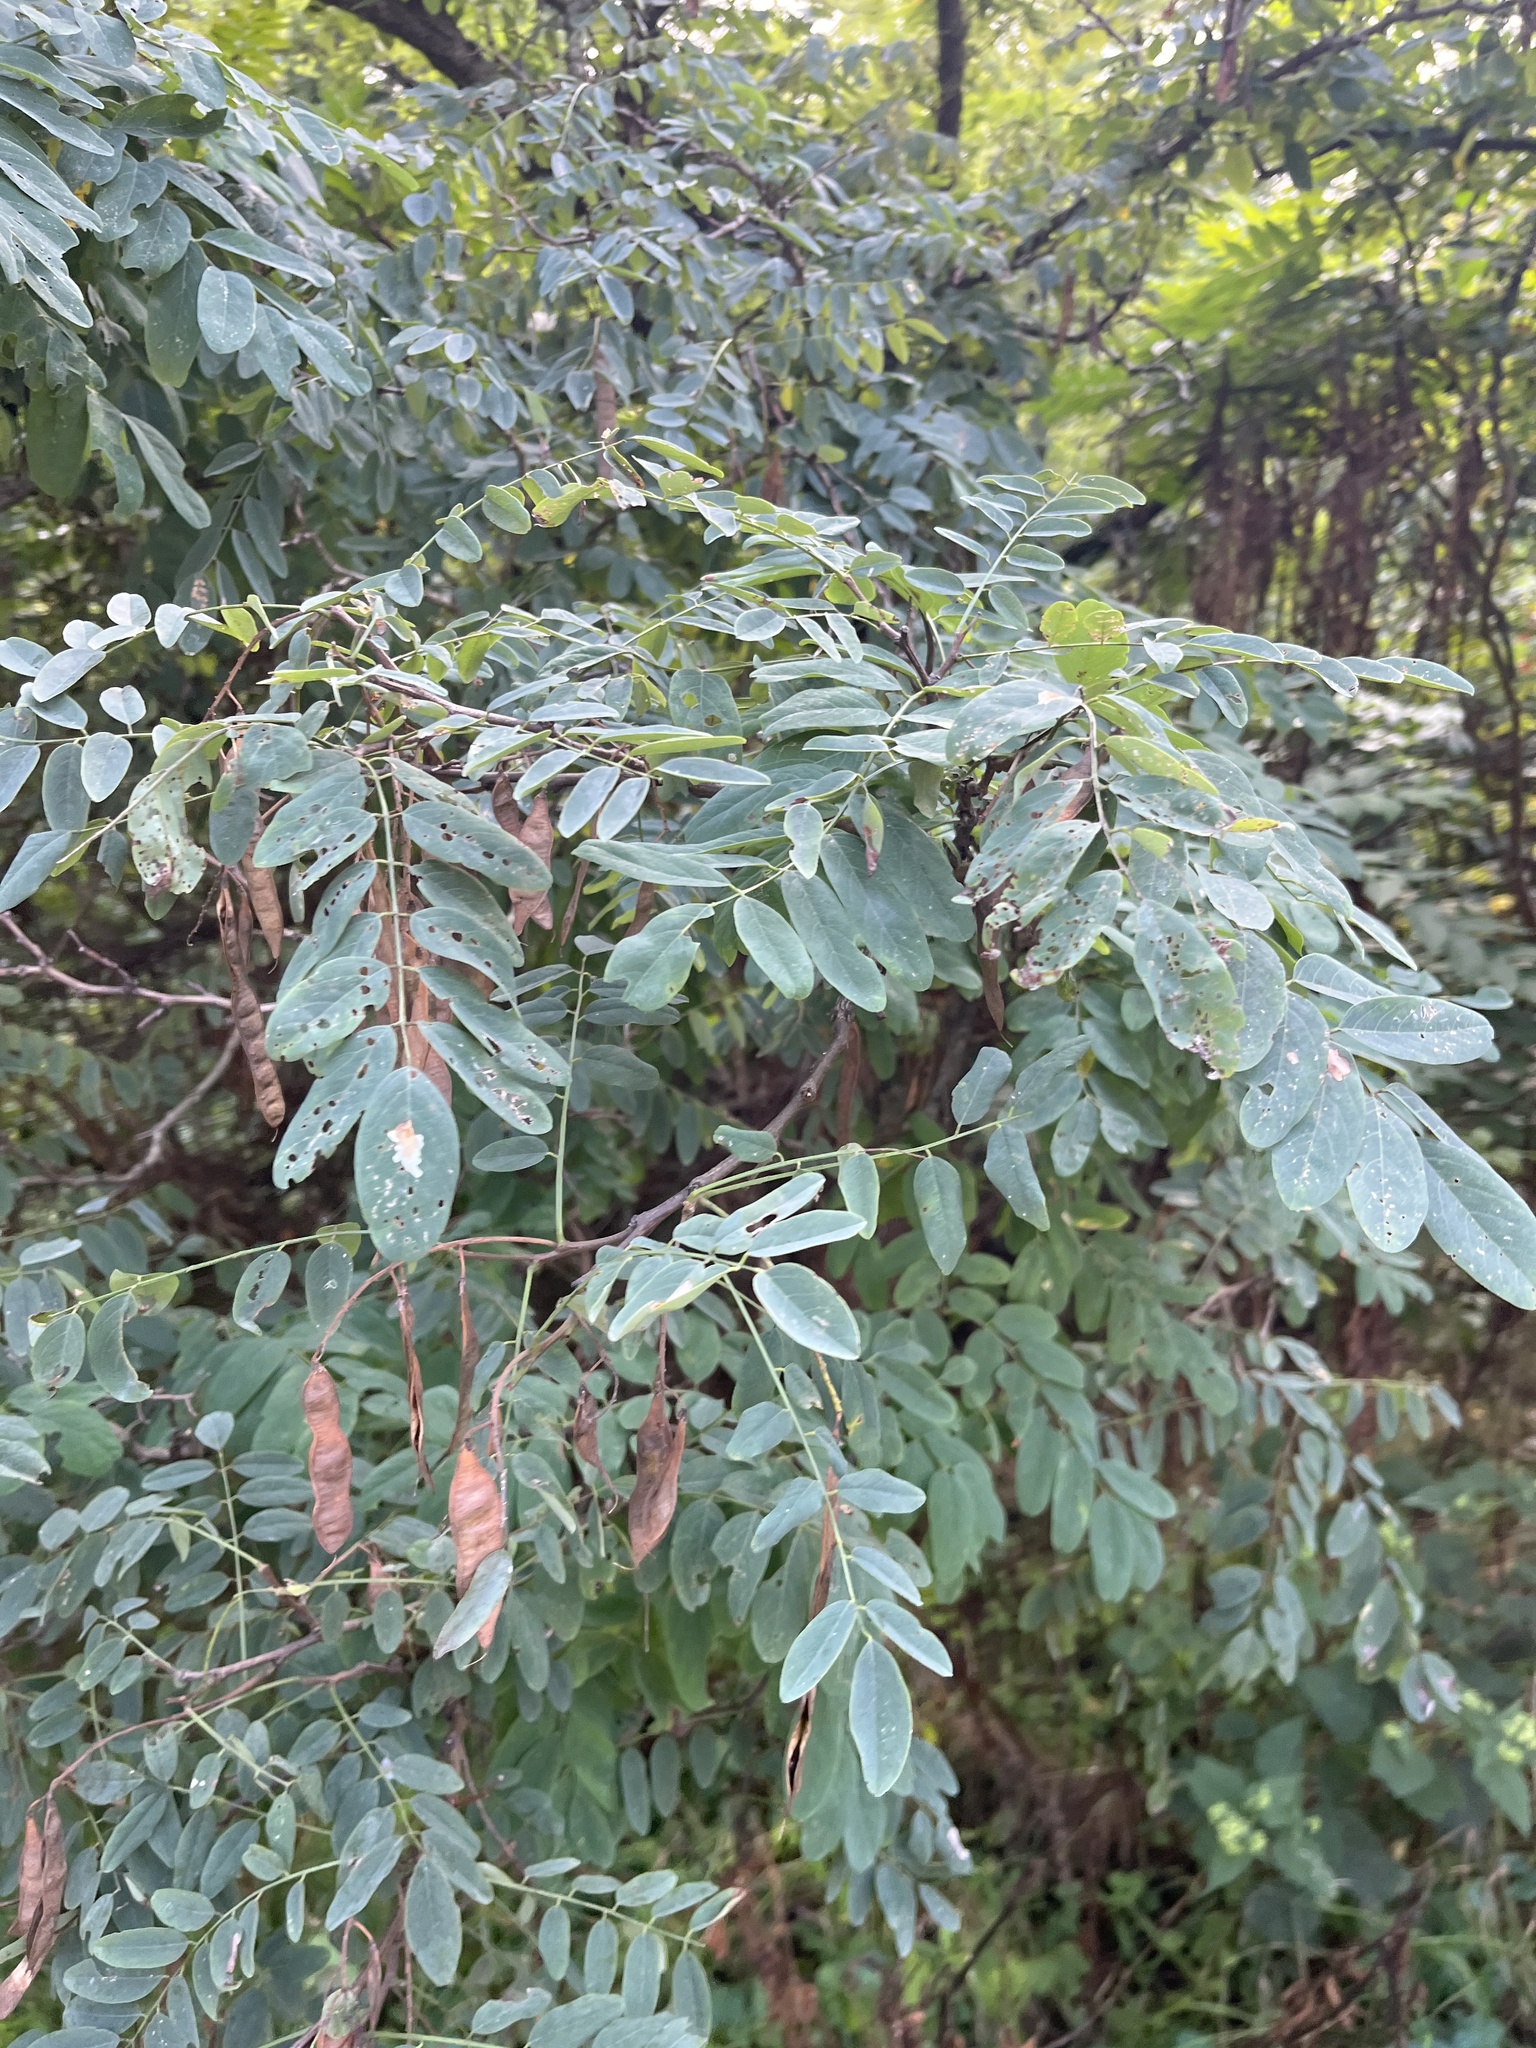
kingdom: Plantae
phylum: Tracheophyta
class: Magnoliopsida
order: Fabales
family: Fabaceae
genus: Robinia
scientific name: Robinia pseudoacacia
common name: Black locust
